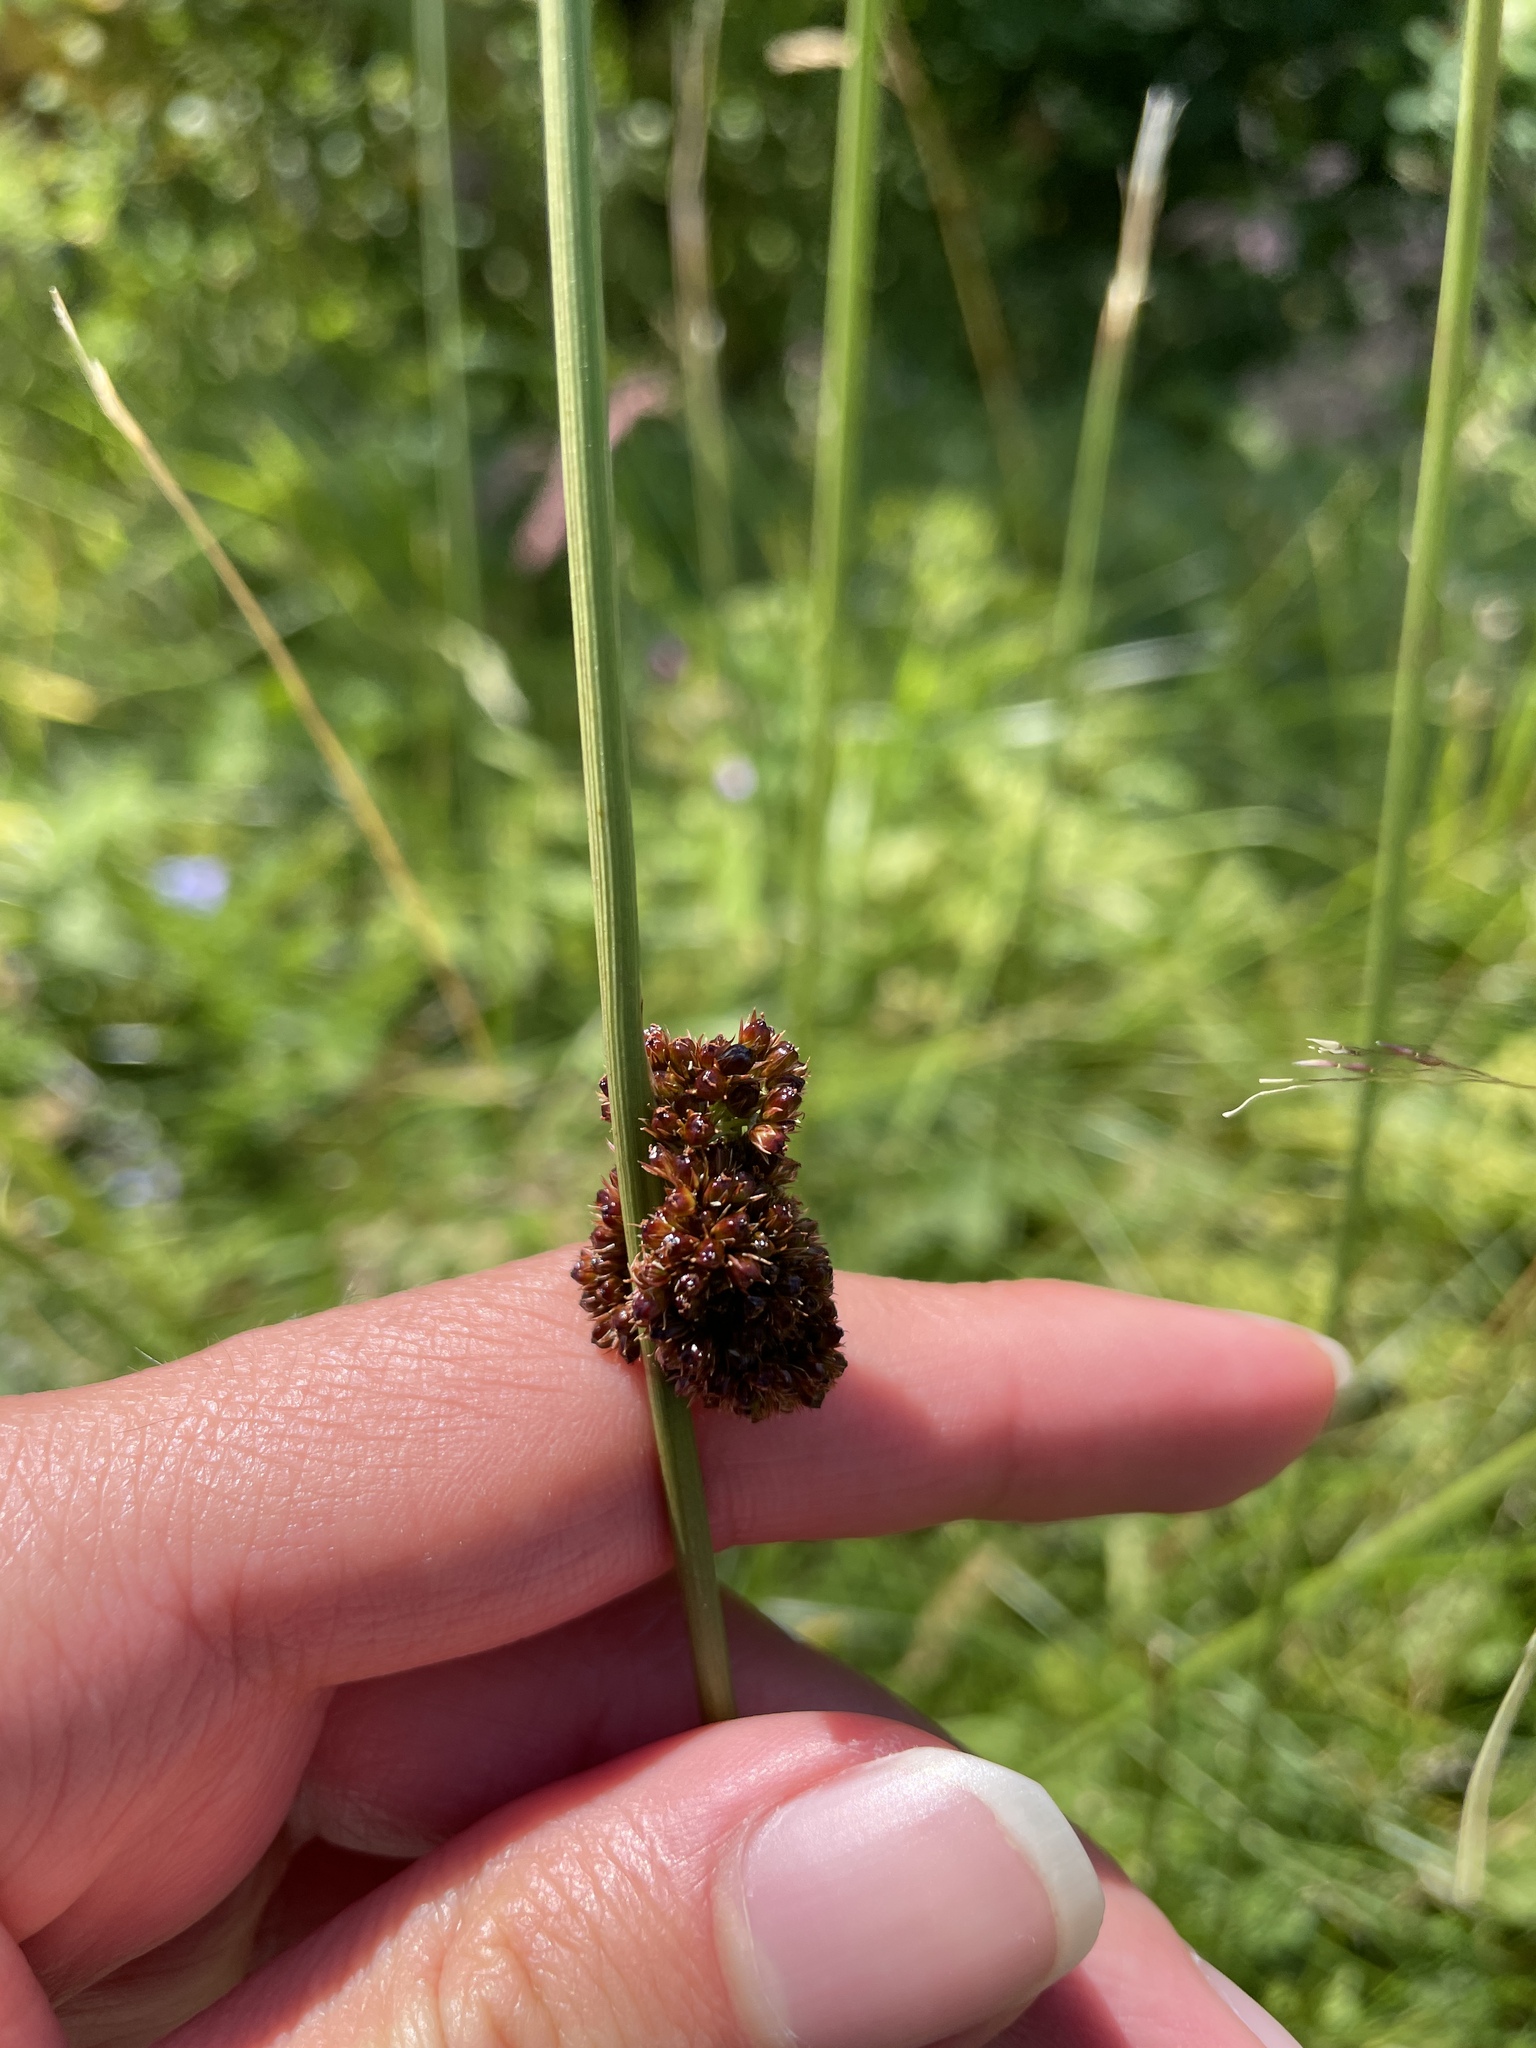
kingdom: Plantae
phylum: Tracheophyta
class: Liliopsida
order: Poales
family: Juncaceae
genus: Juncus
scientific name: Juncus conglomeratus
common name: Compact rush
